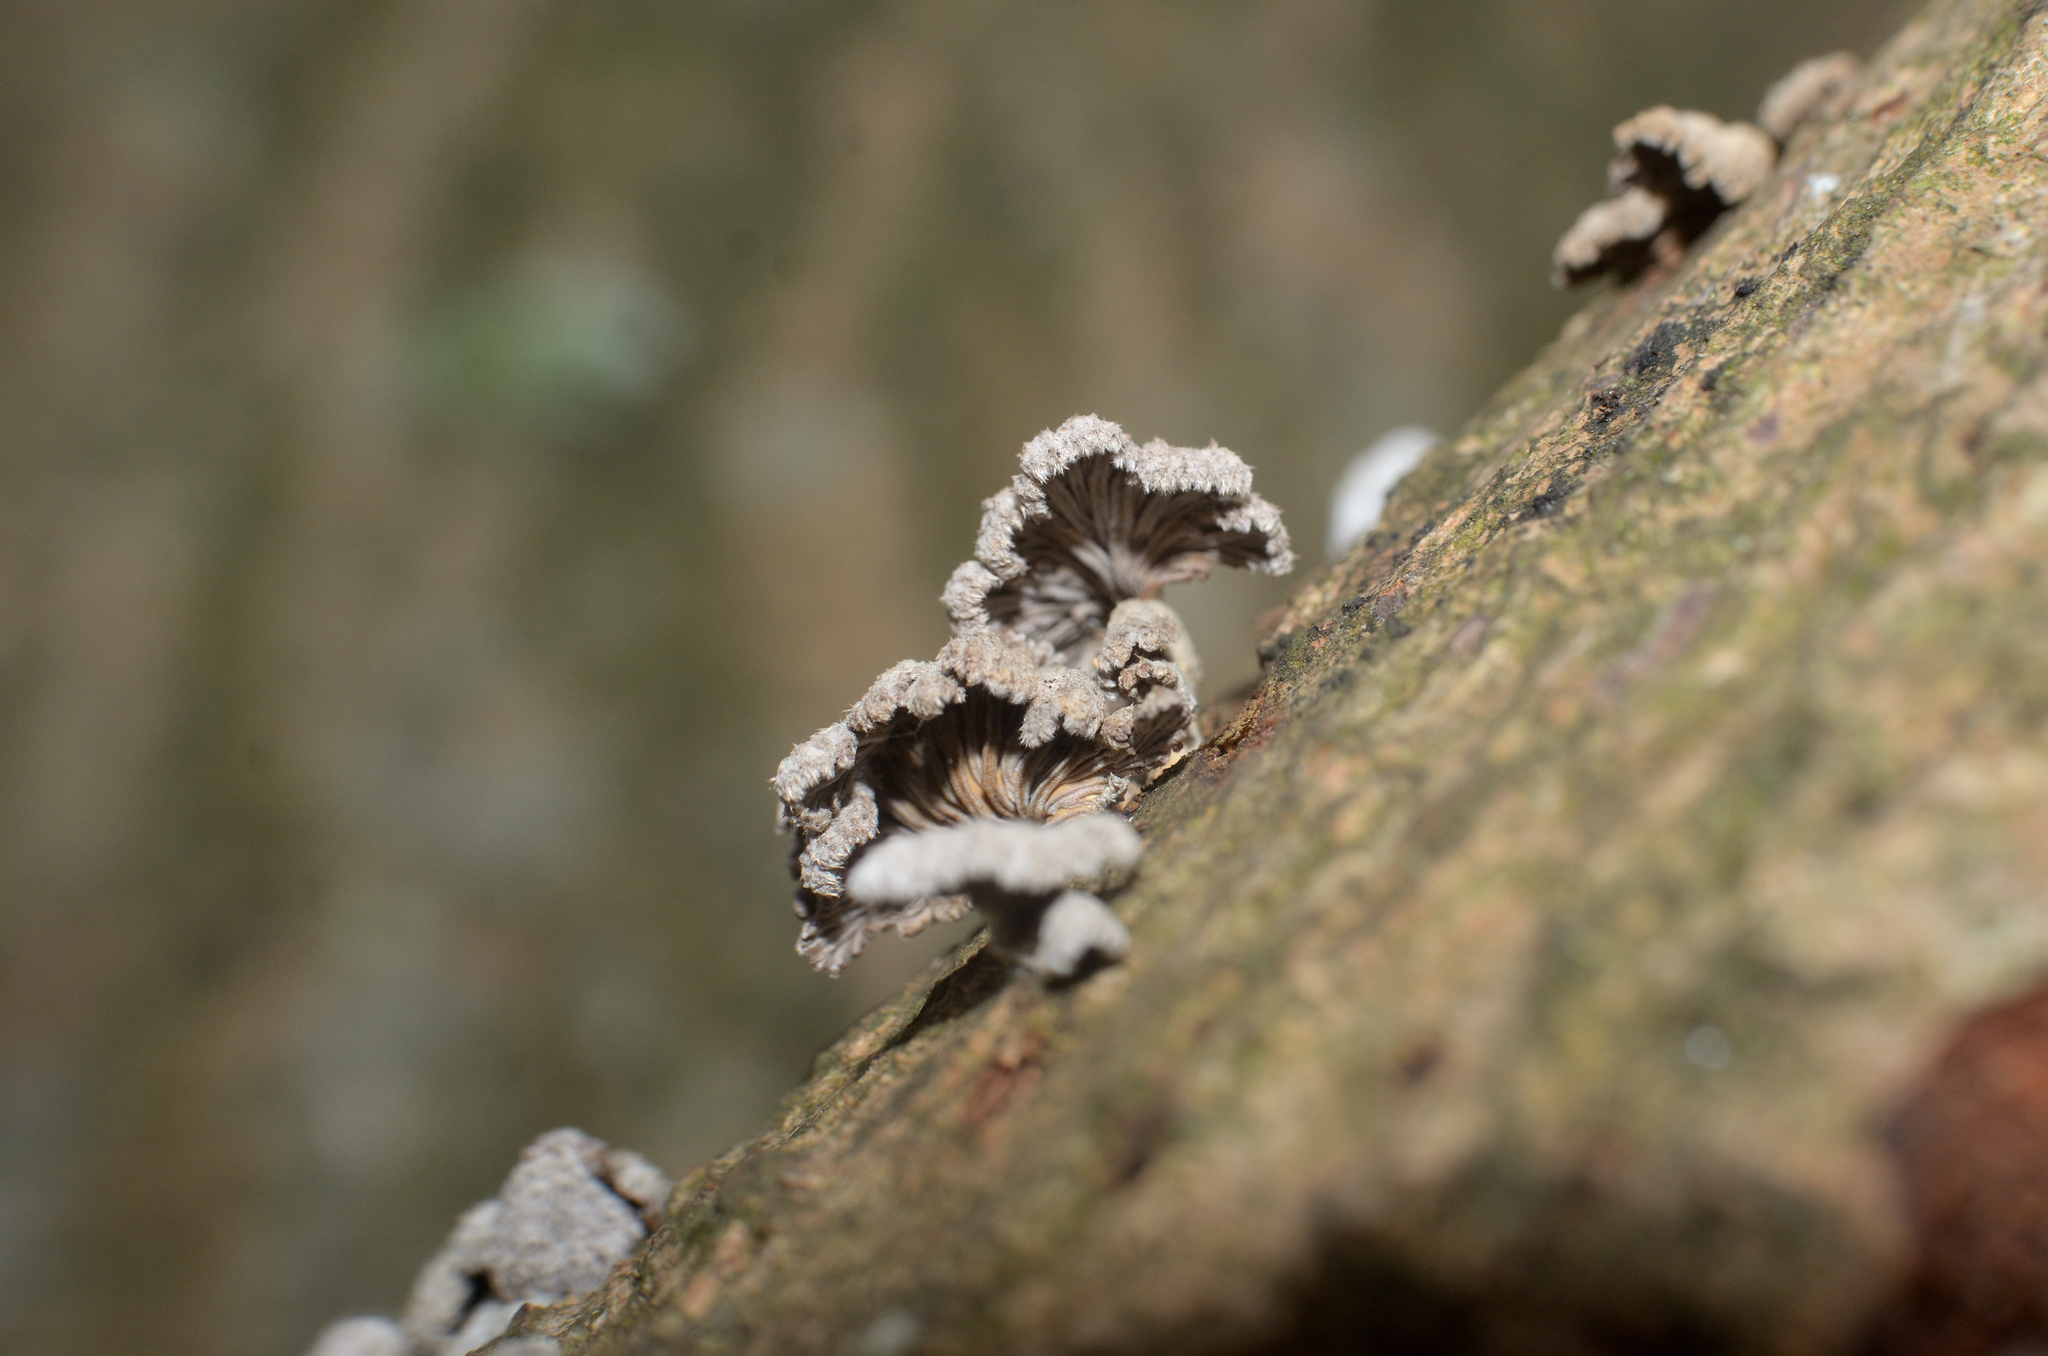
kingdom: Fungi
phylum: Basidiomycota
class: Agaricomycetes
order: Agaricales
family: Schizophyllaceae
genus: Schizophyllum
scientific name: Schizophyllum commune
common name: Common porecrust
